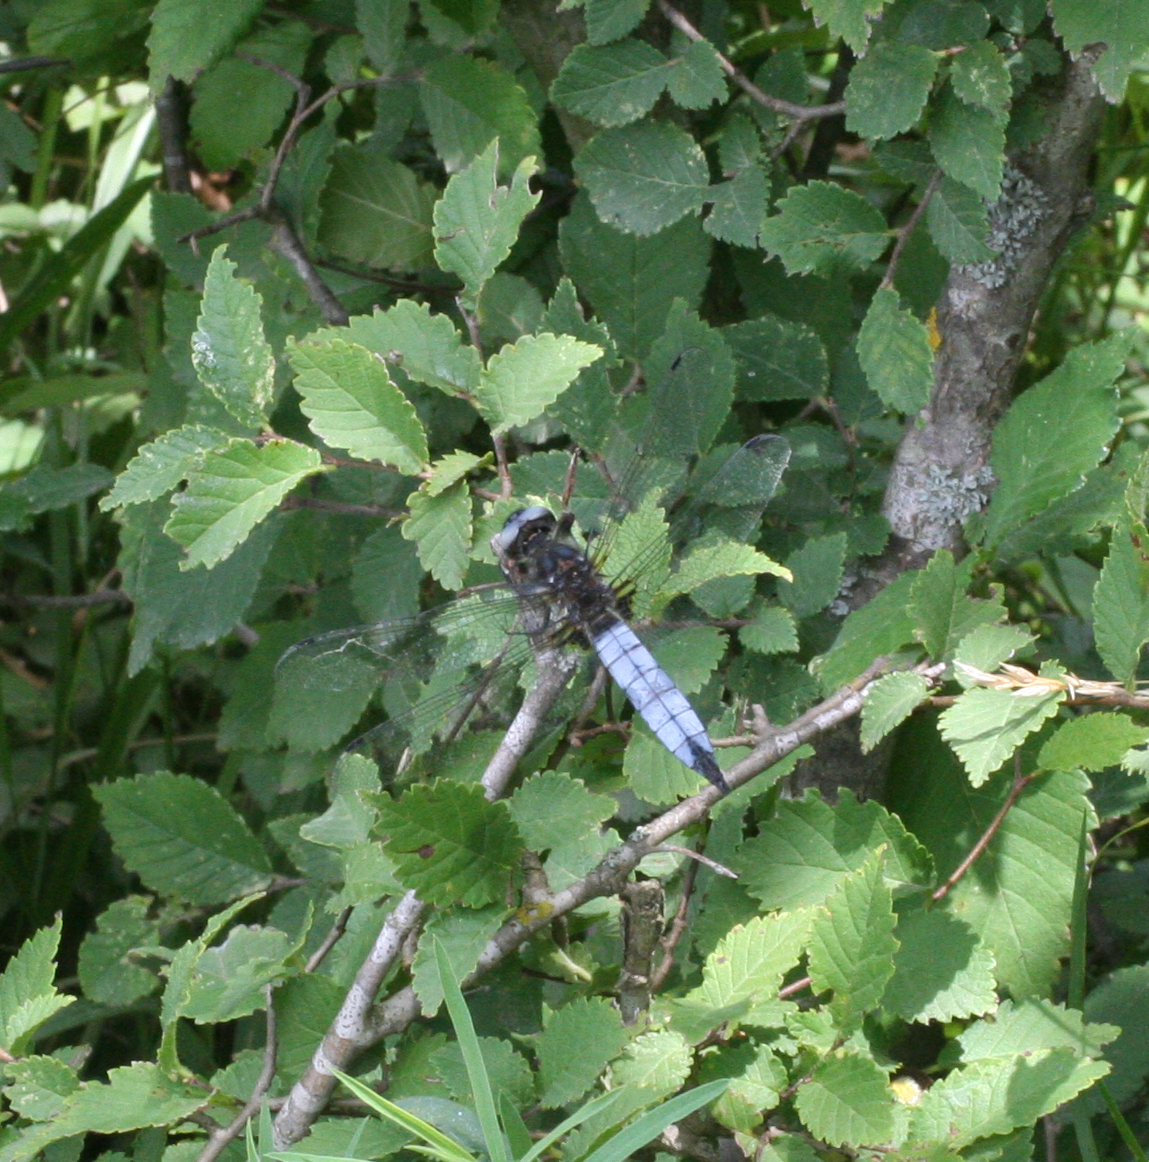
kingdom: Animalia
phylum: Arthropoda
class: Insecta
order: Odonata
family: Libellulidae
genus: Libellula
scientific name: Libellula fulva
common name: Blue chaser
